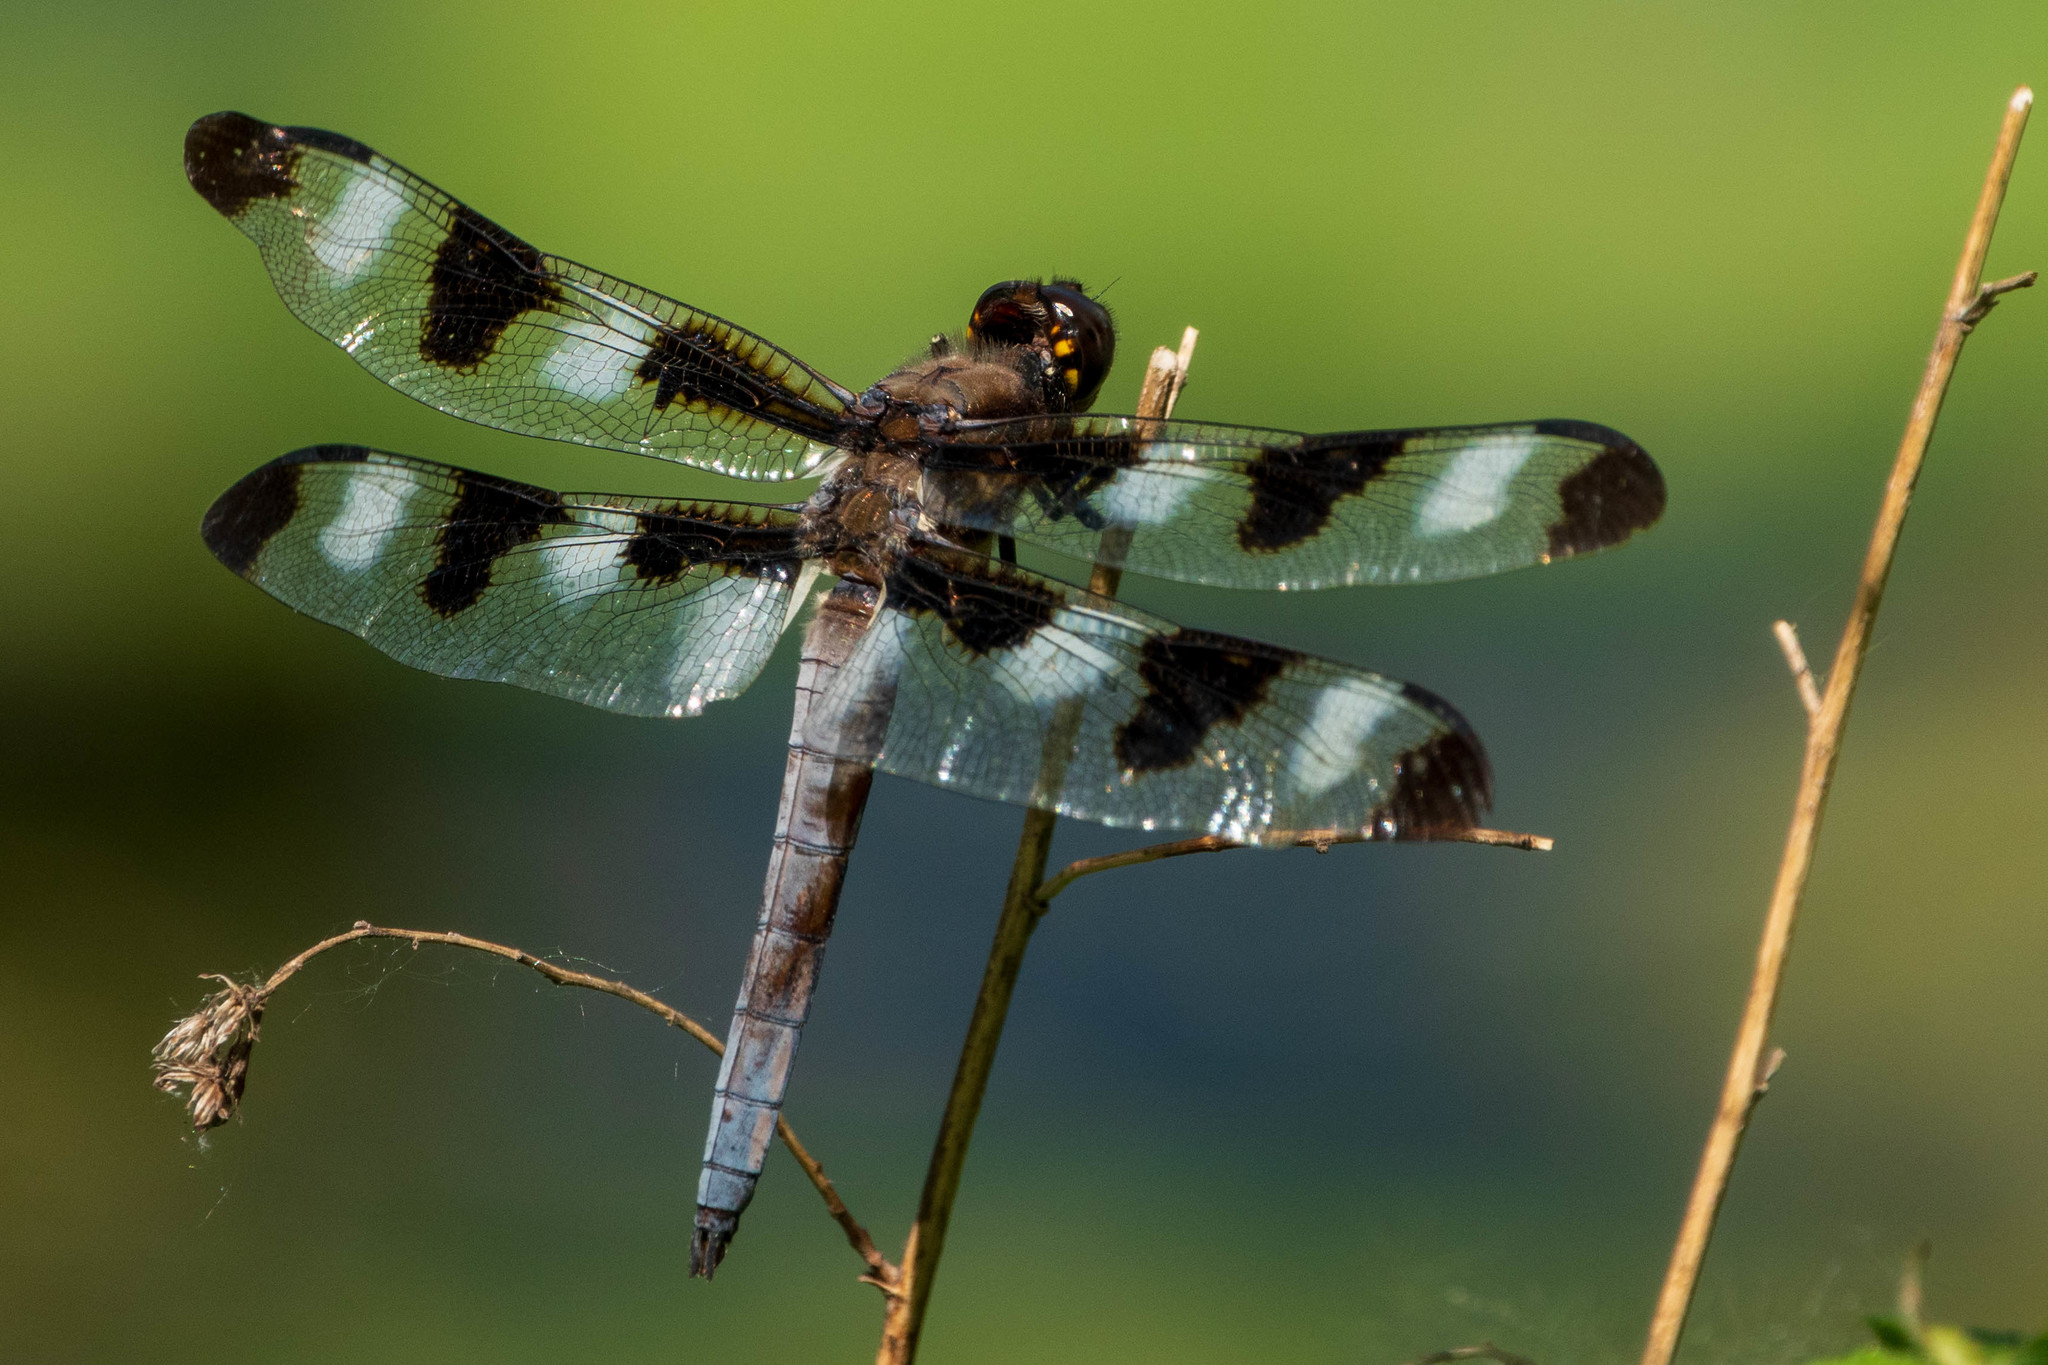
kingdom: Animalia
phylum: Arthropoda
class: Insecta
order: Odonata
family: Libellulidae
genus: Libellula
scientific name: Libellula pulchella
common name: Twelve-spotted skimmer
